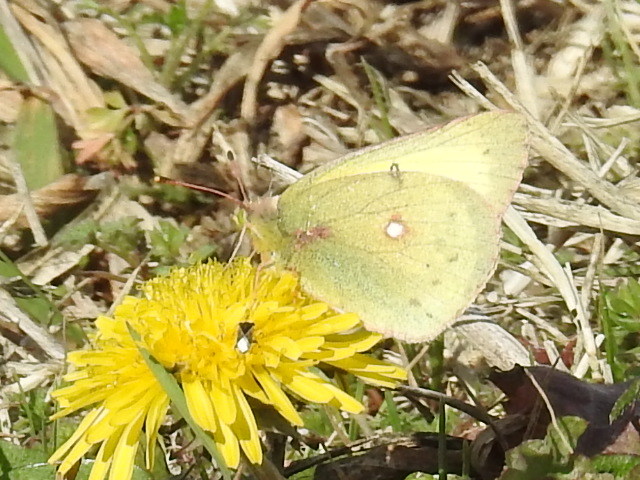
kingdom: Animalia
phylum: Arthropoda
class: Insecta
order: Lepidoptera
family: Pieridae
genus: Colias
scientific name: Colias eurytheme
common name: Alfalfa butterfly
